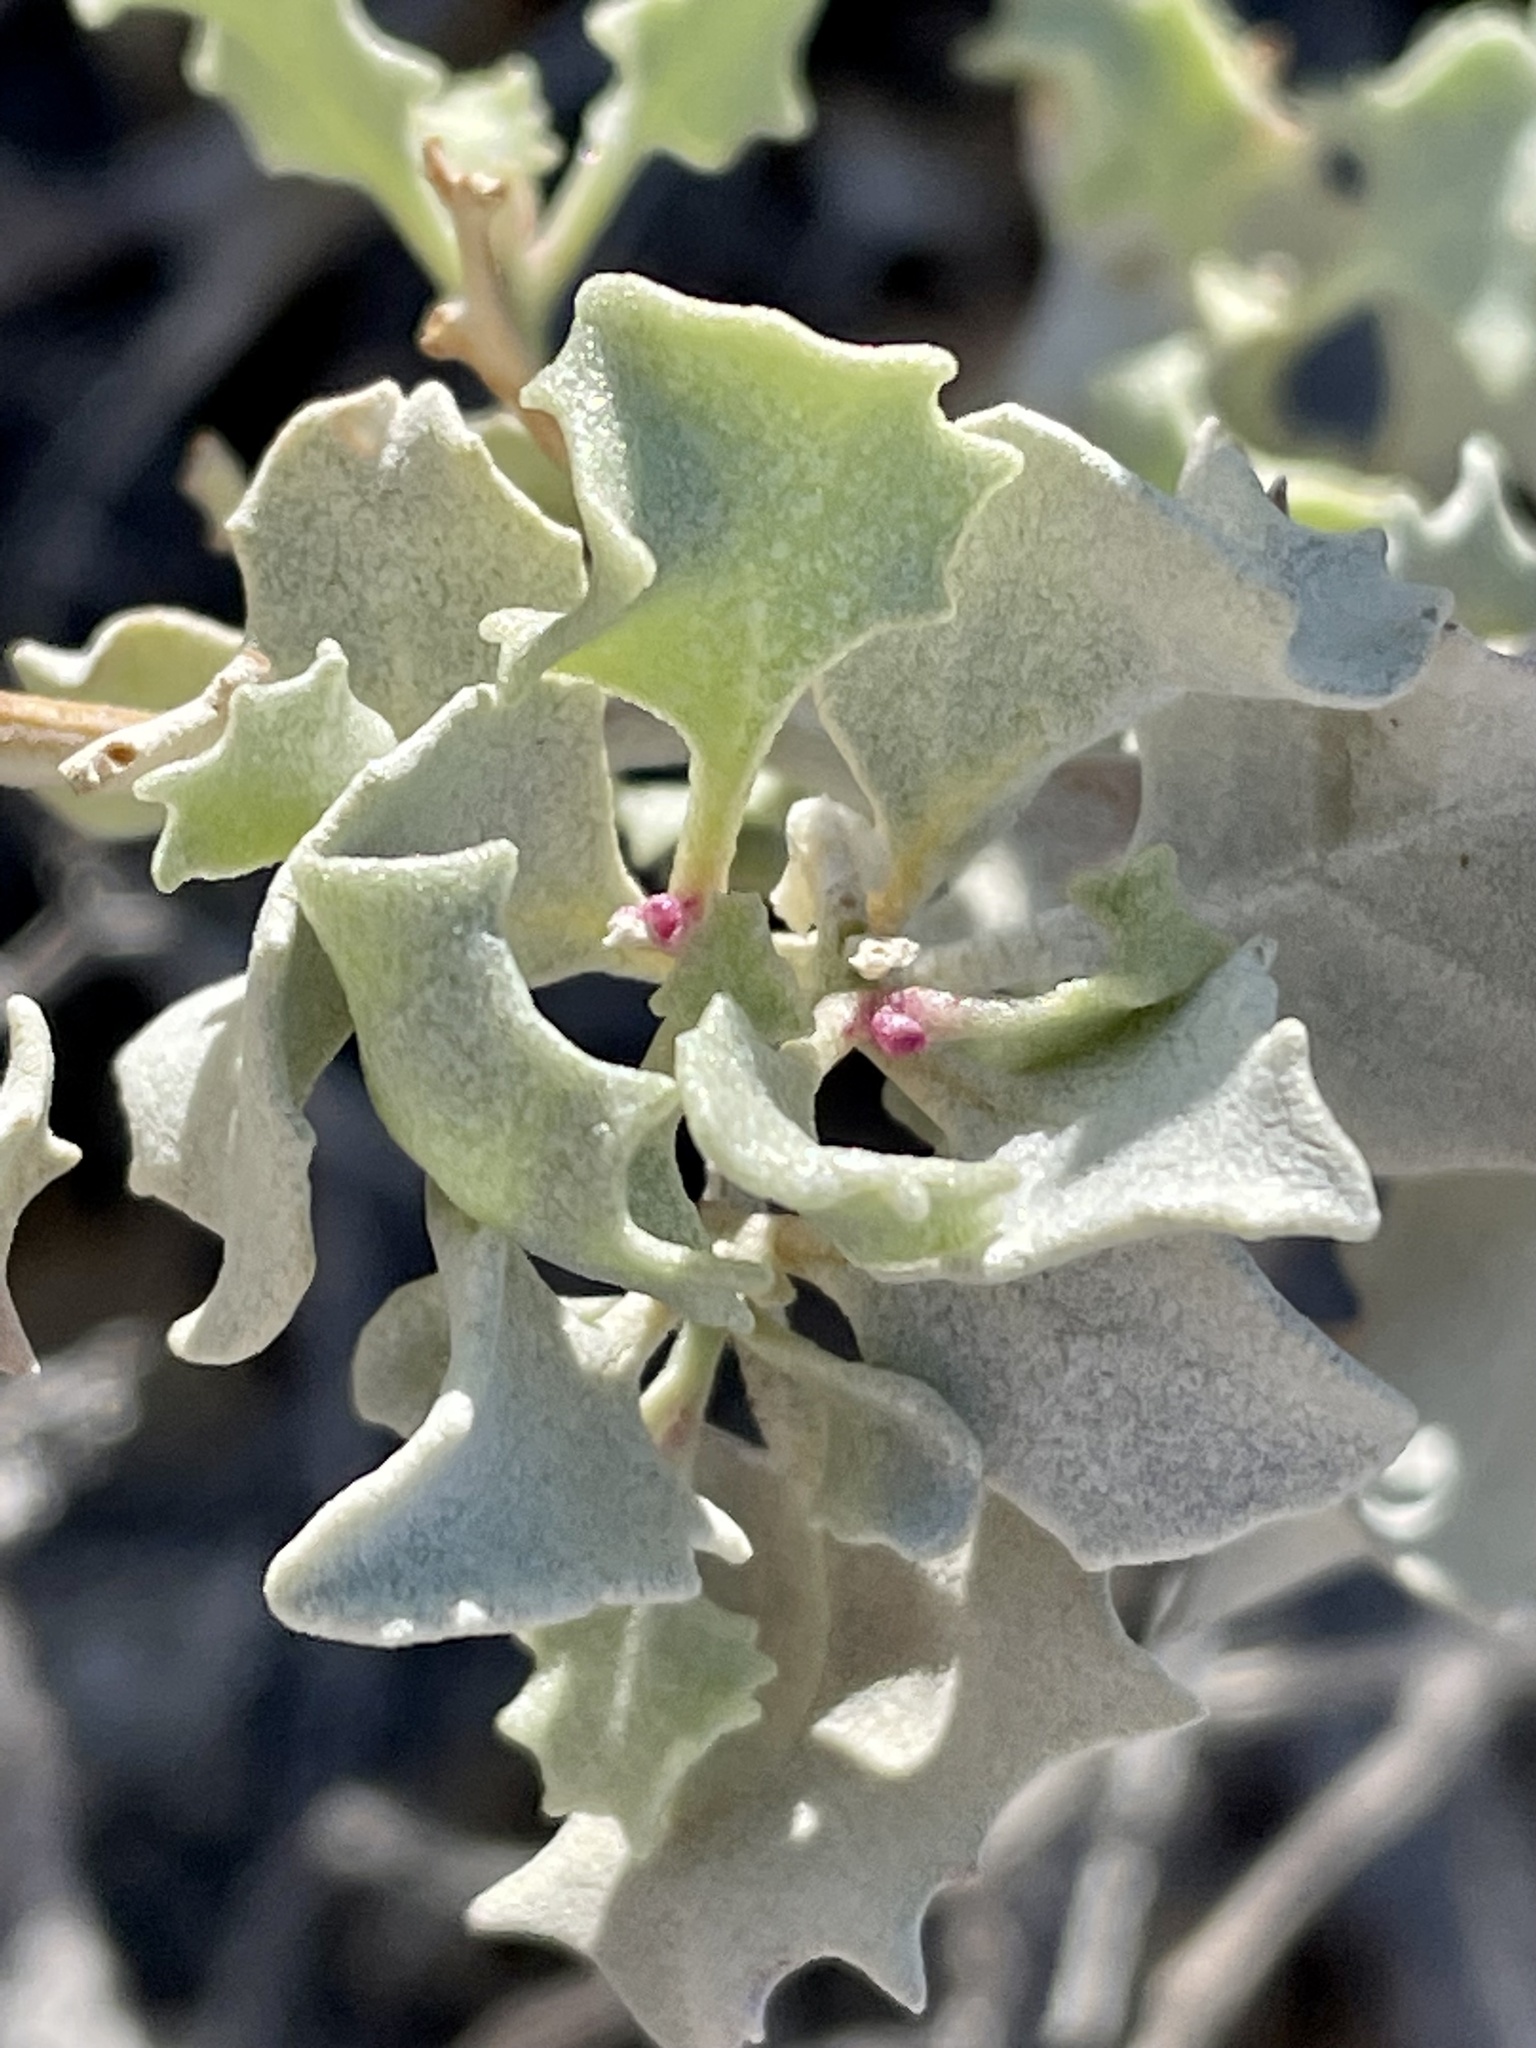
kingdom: Plantae
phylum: Tracheophyta
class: Magnoliopsida
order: Caryophyllales
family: Amaranthaceae
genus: Atriplex
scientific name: Atriplex hymenelytra
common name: Desert-holly
